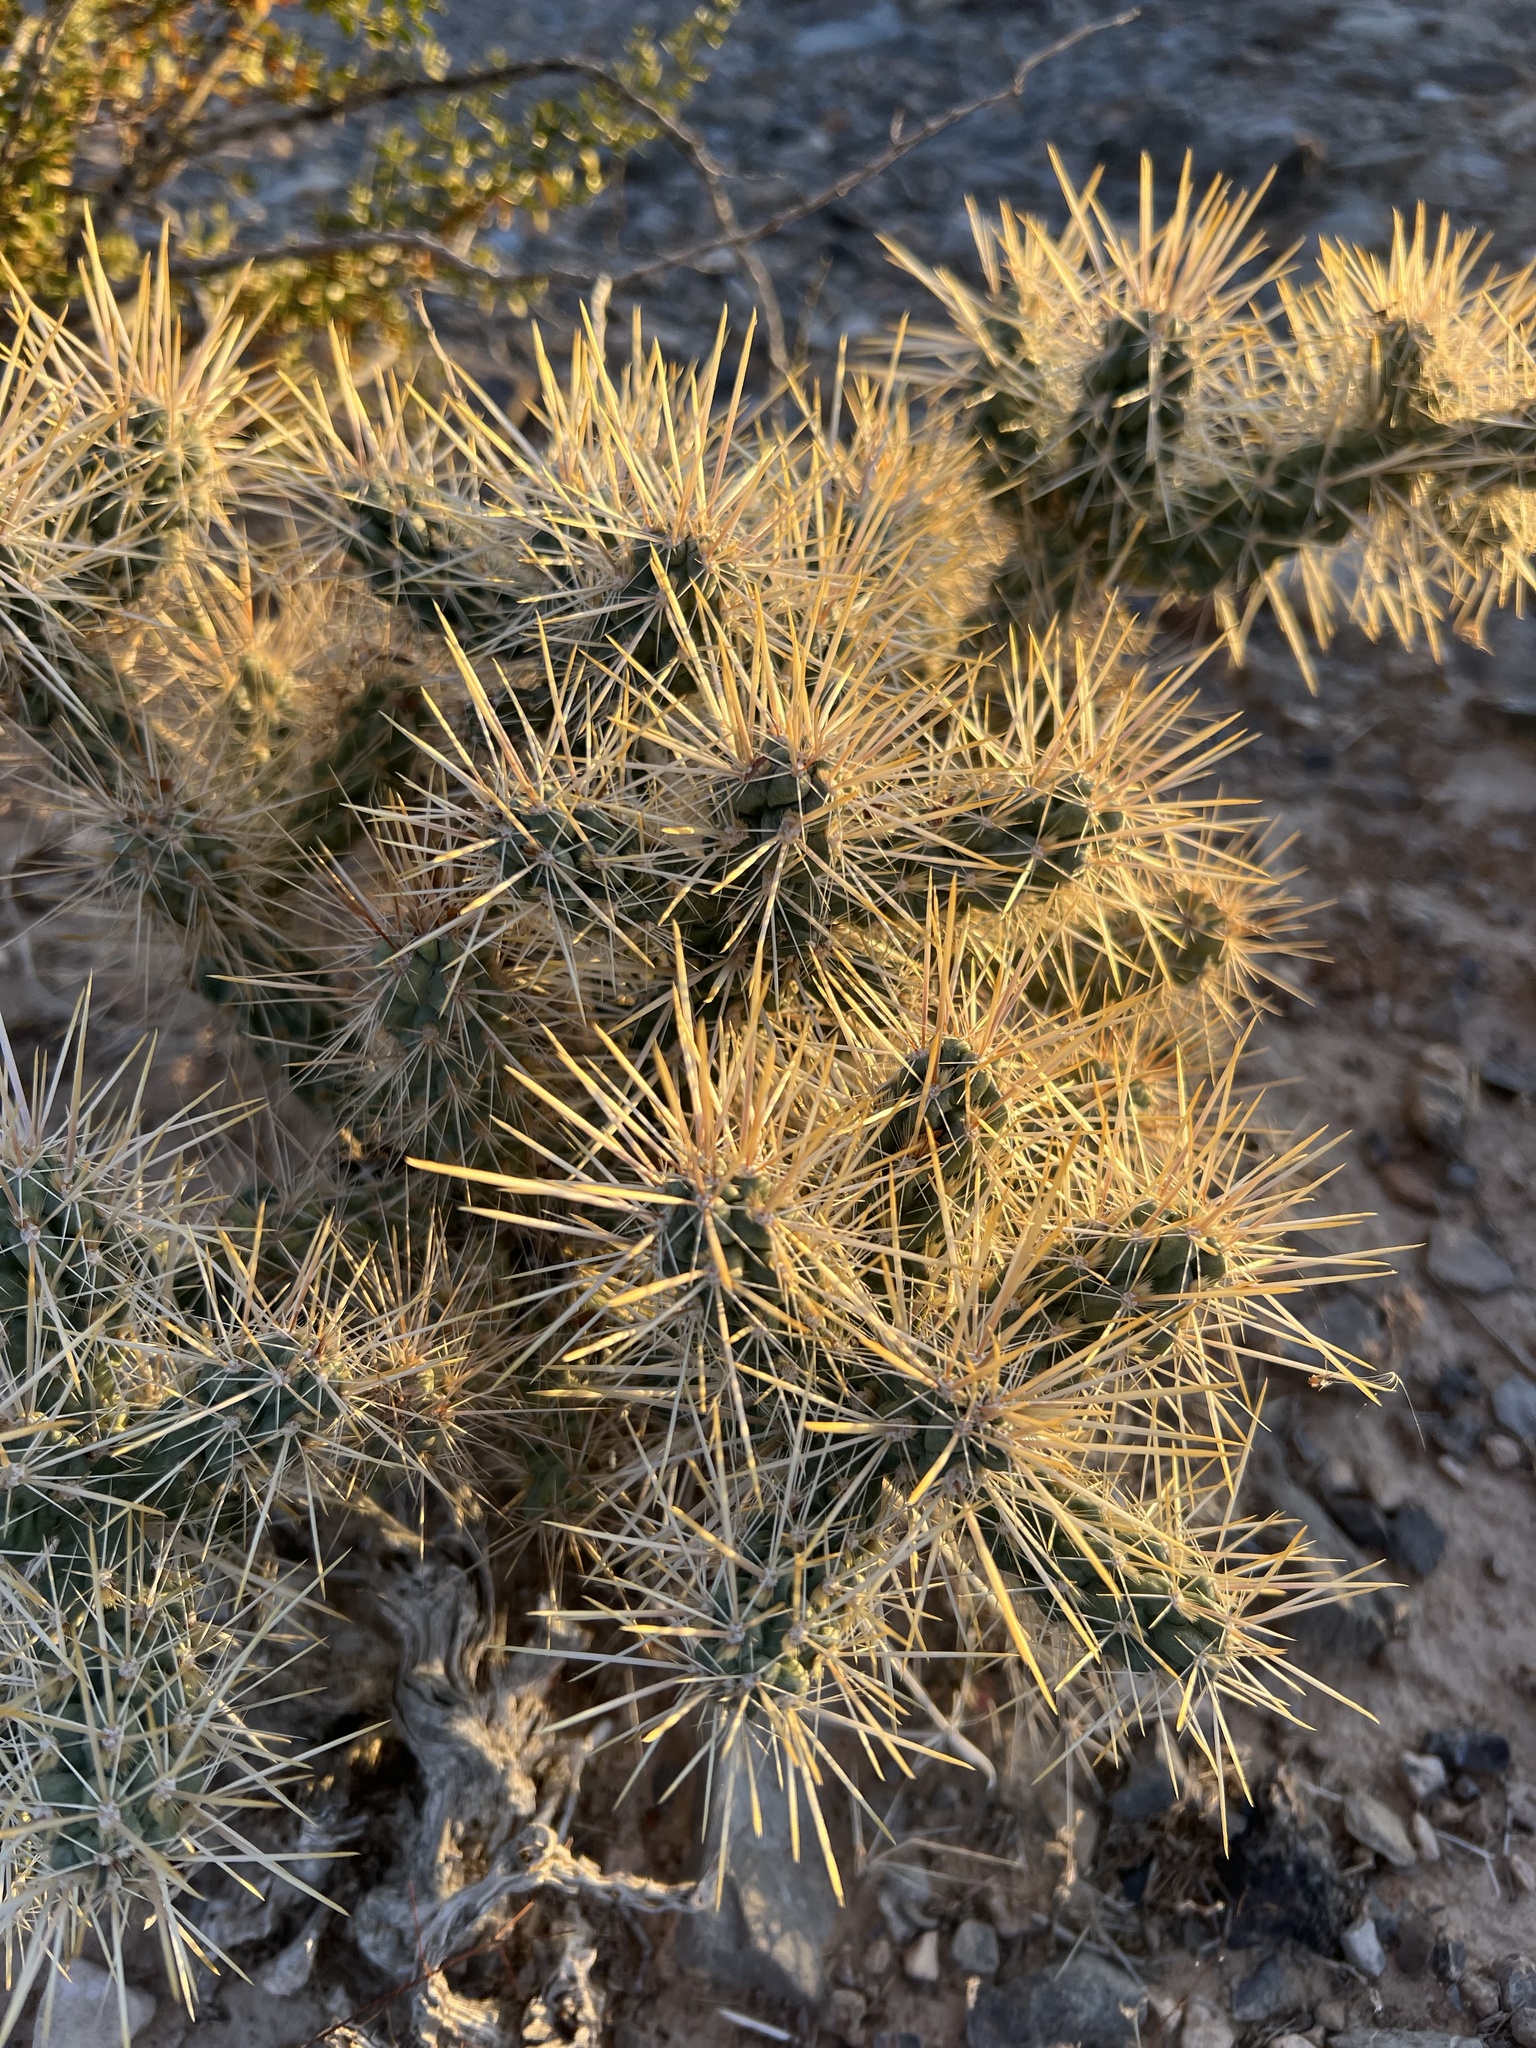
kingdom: Plantae
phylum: Tracheophyta
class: Magnoliopsida
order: Caryophyllales
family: Cactaceae
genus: Cylindropuntia
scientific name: Cylindropuntia echinocarpa
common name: Ground cholla
